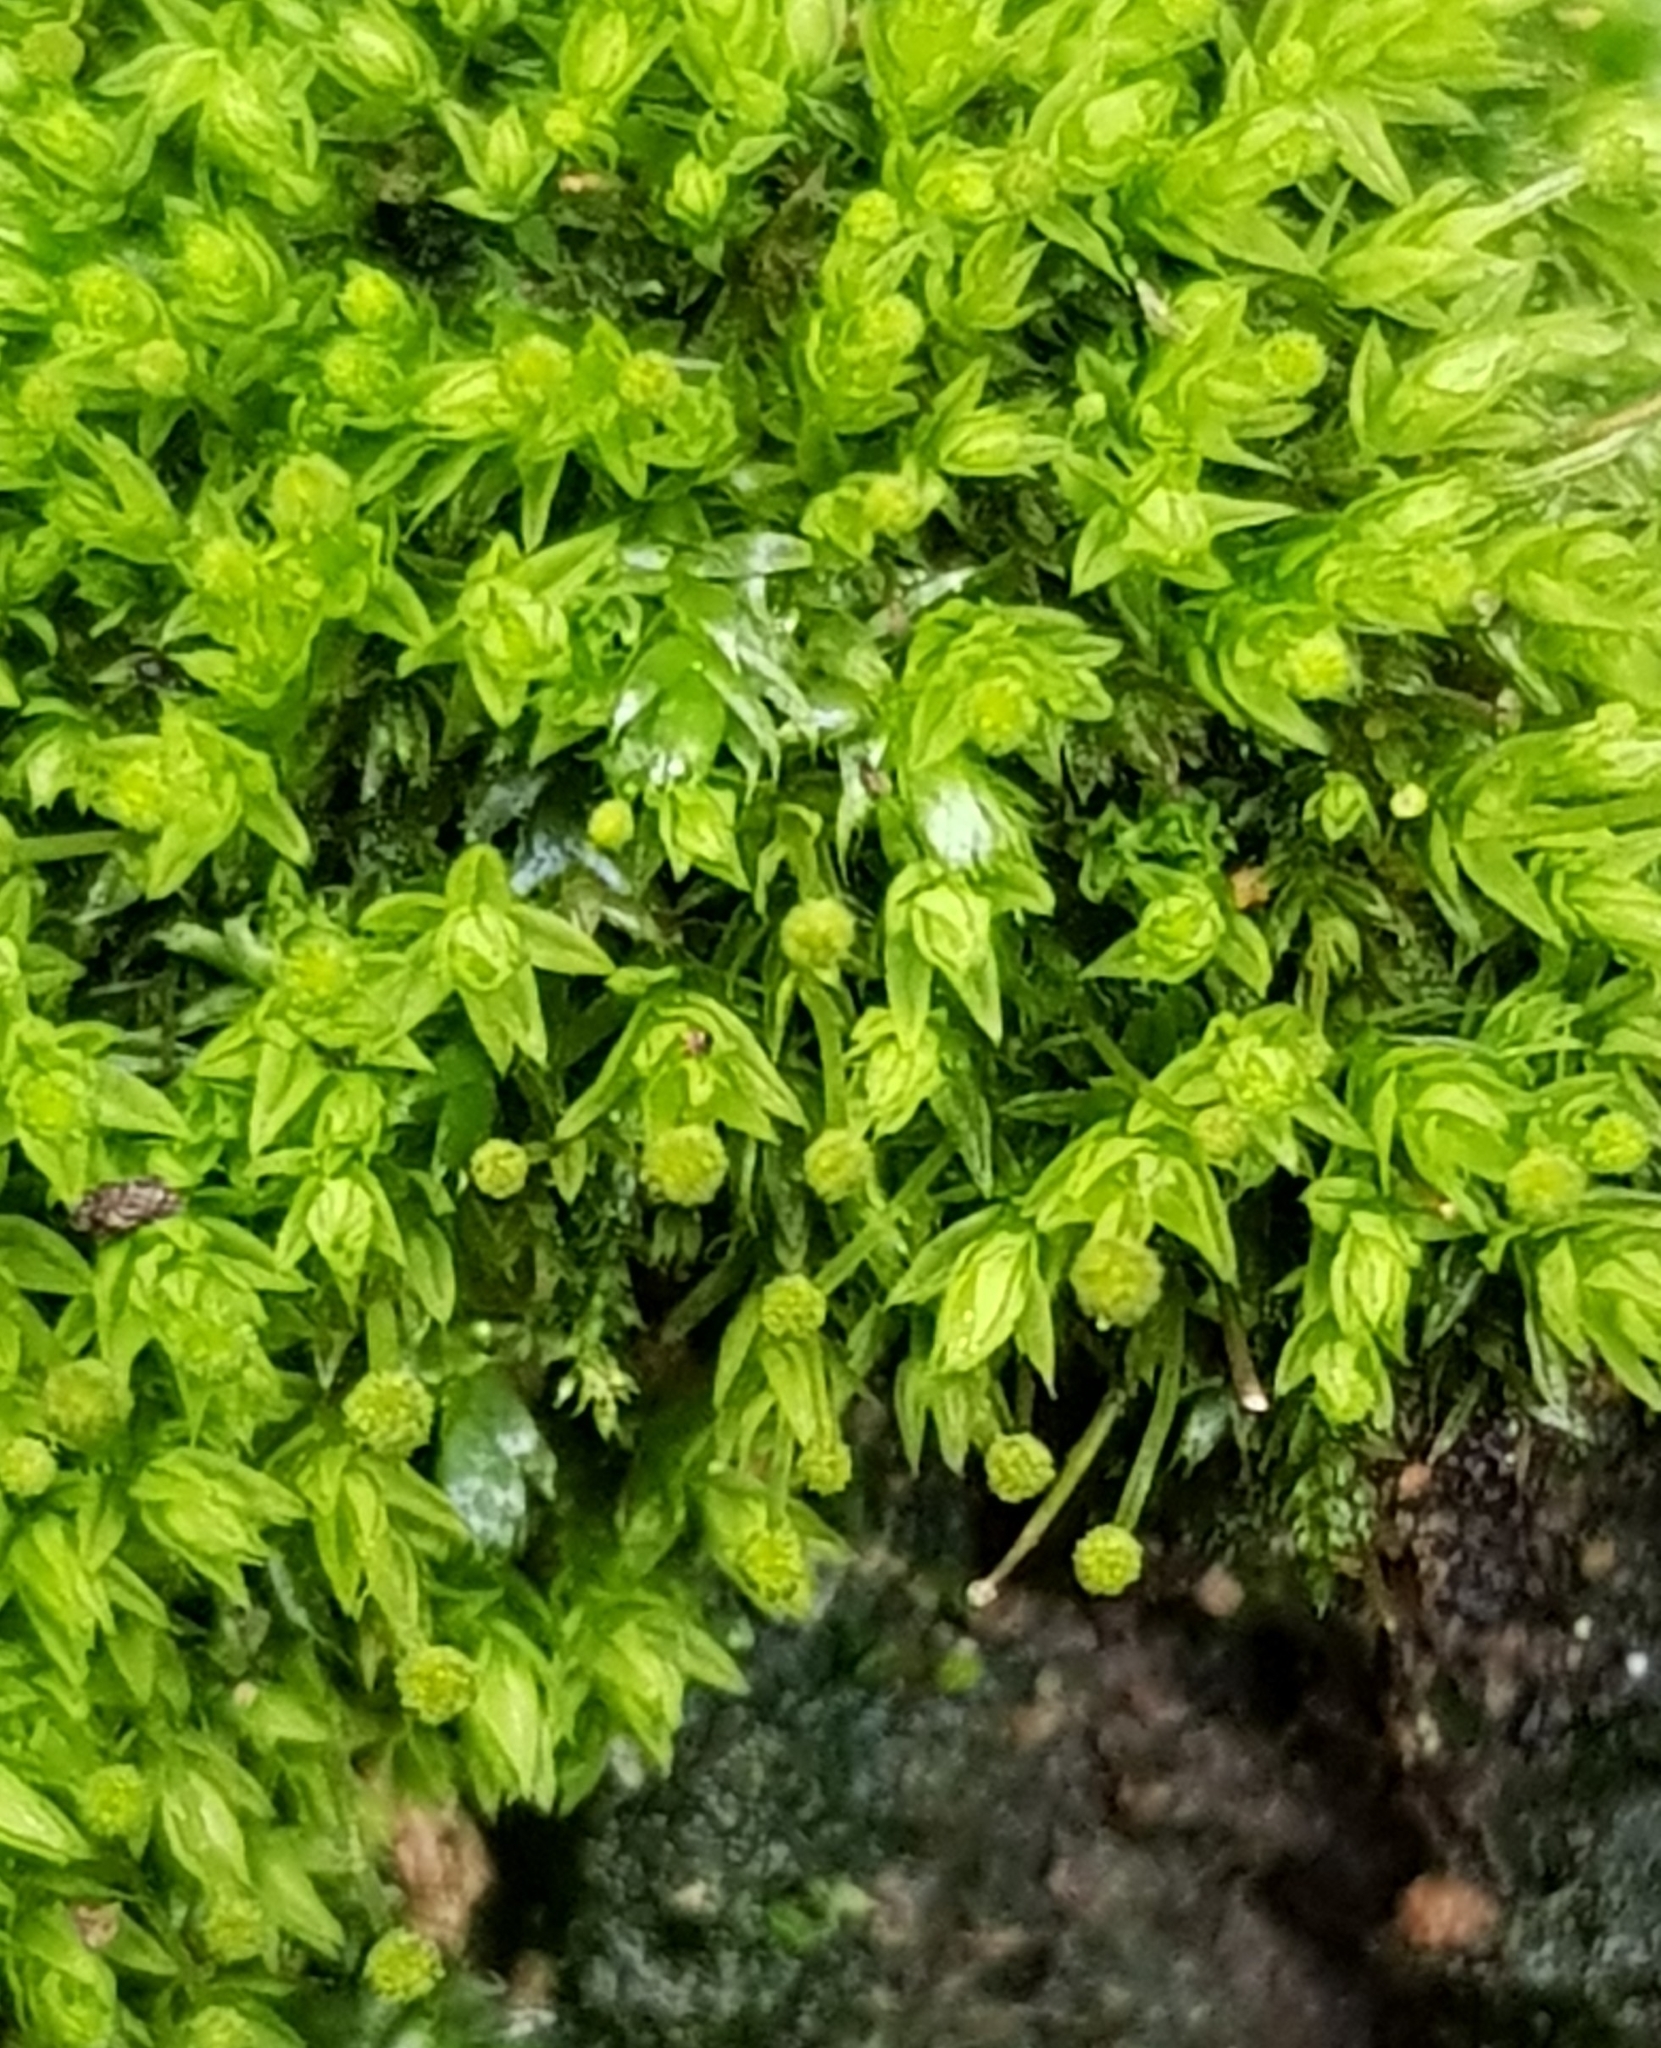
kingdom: Plantae
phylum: Bryophyta
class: Bryopsida
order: Aulacomniales
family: Aulacomniaceae
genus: Aulacomnium
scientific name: Aulacomnium androgynum
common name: Little groove moss
